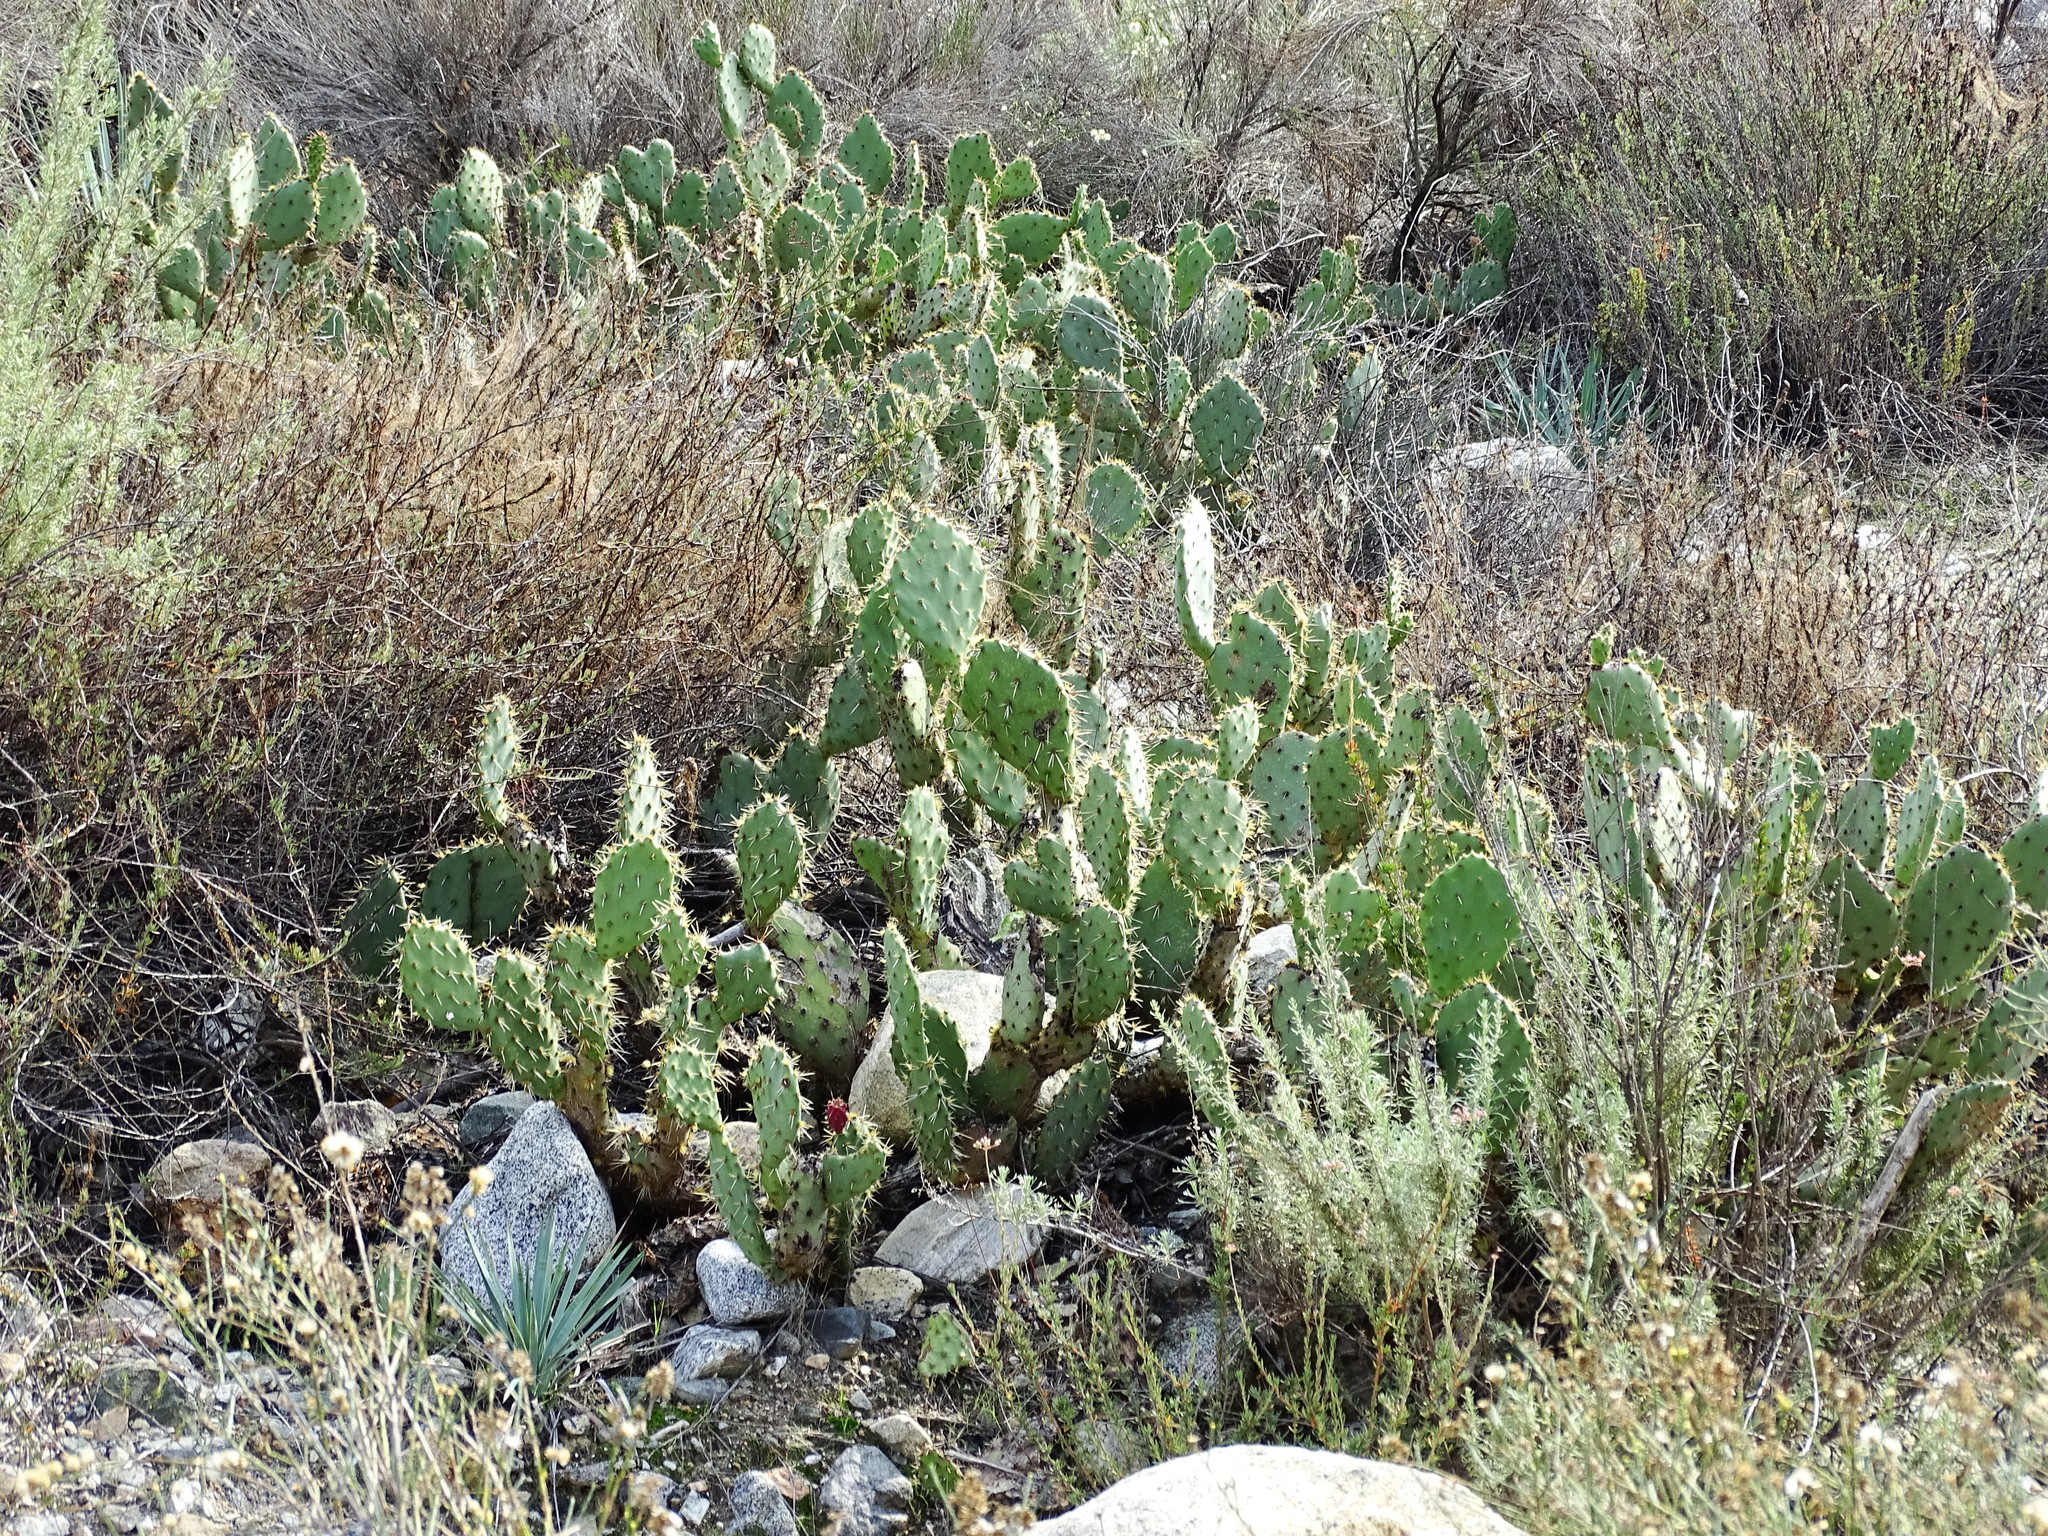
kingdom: Plantae
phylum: Tracheophyta
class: Magnoliopsida
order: Caryophyllales
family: Cactaceae
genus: Opuntia
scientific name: Opuntia littoralis
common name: Coastal prickly-pear
